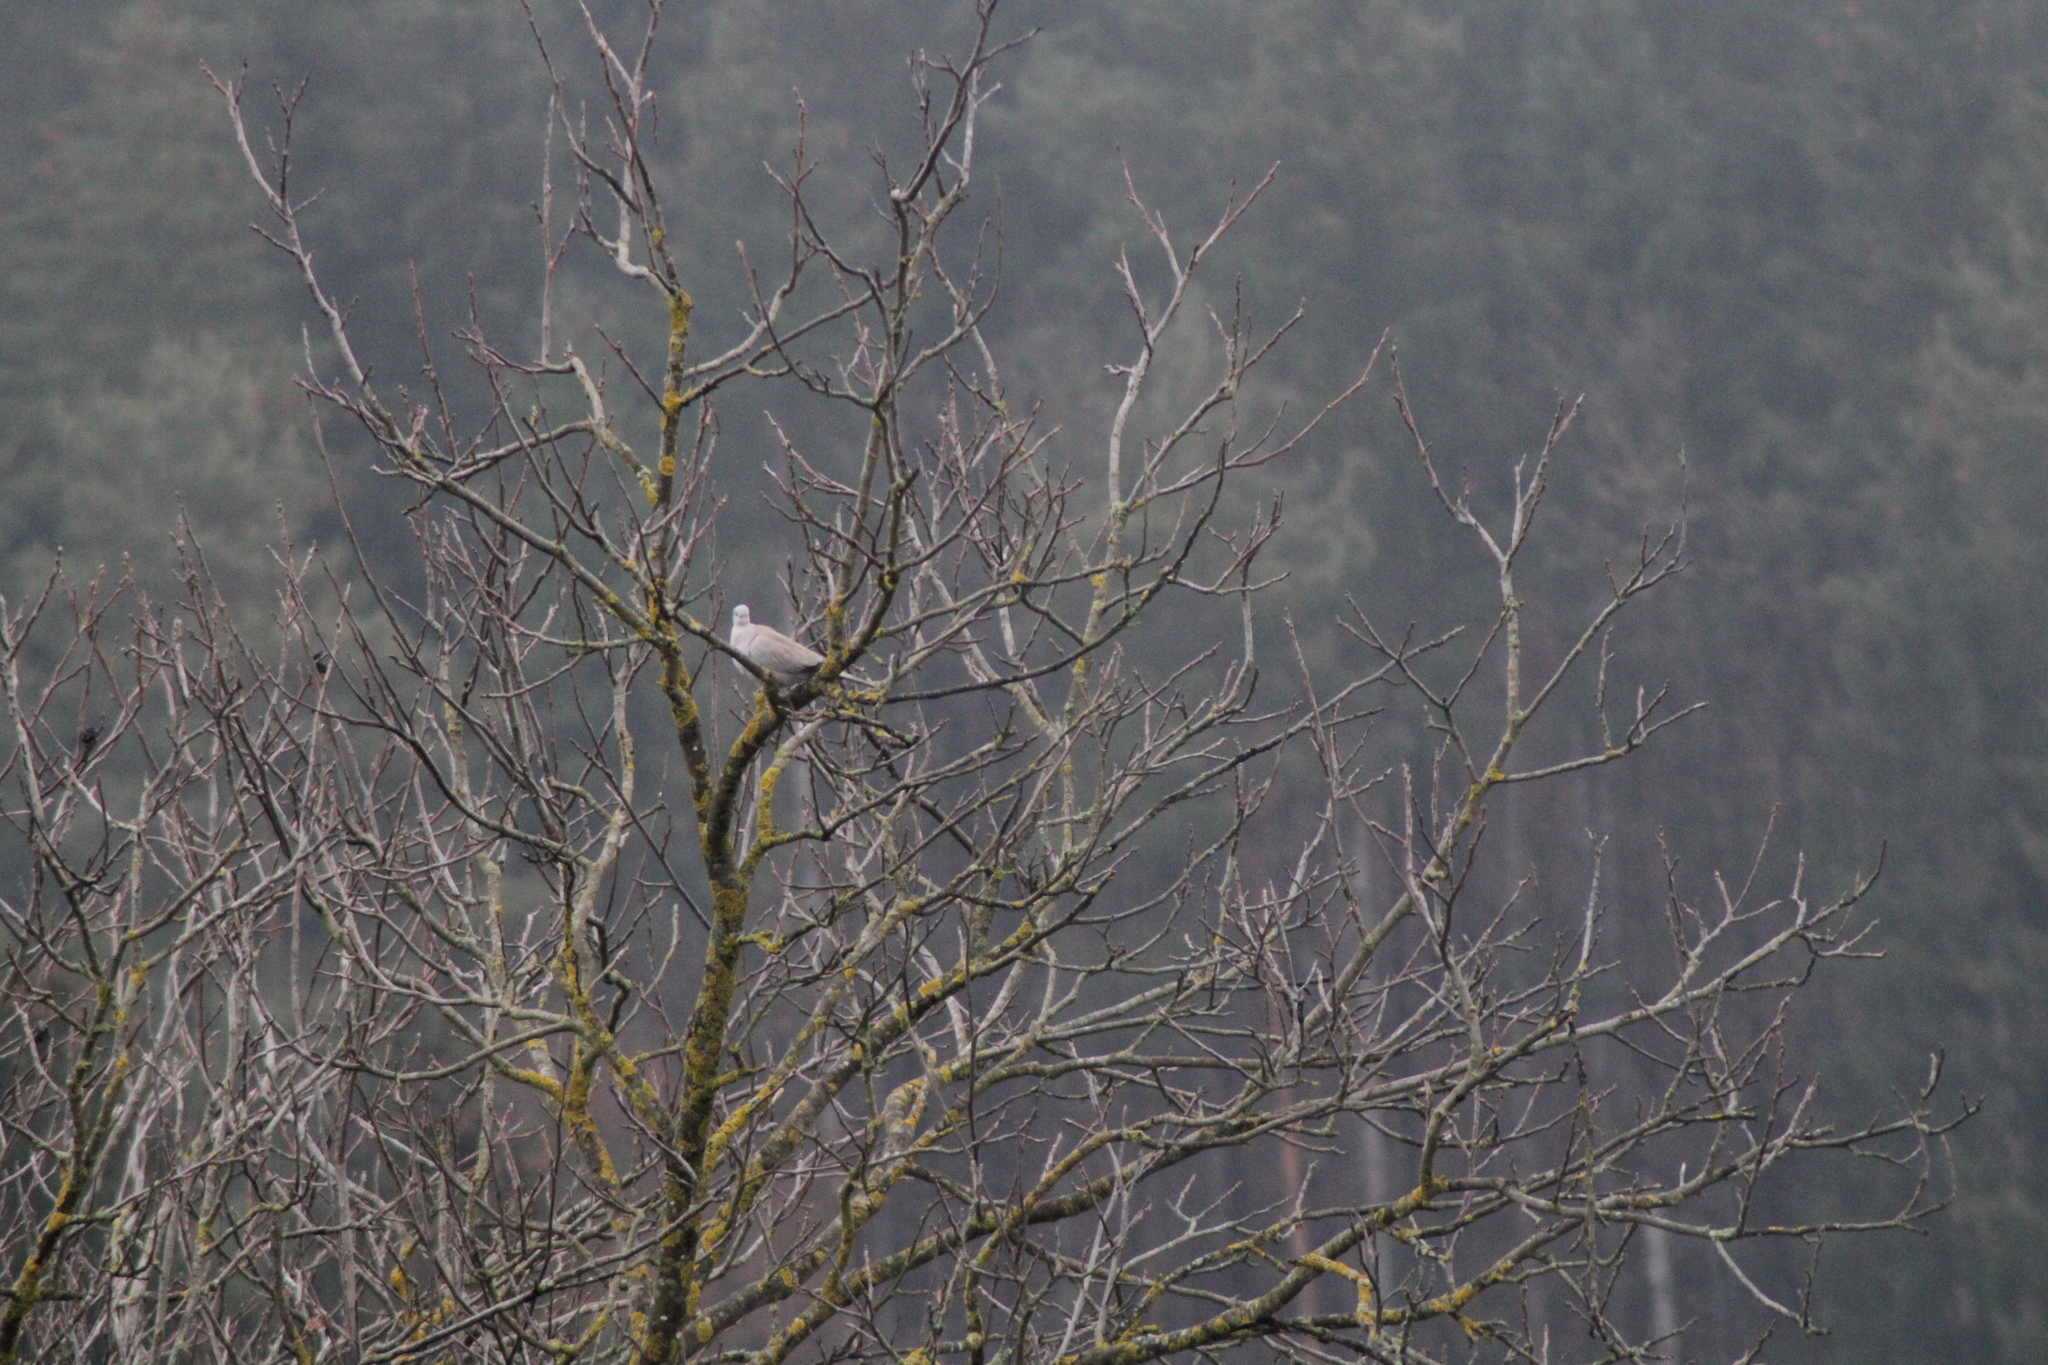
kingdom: Animalia
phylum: Chordata
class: Aves
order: Columbiformes
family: Columbidae
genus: Streptopelia
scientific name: Streptopelia decaocto
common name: Eurasian collared dove
